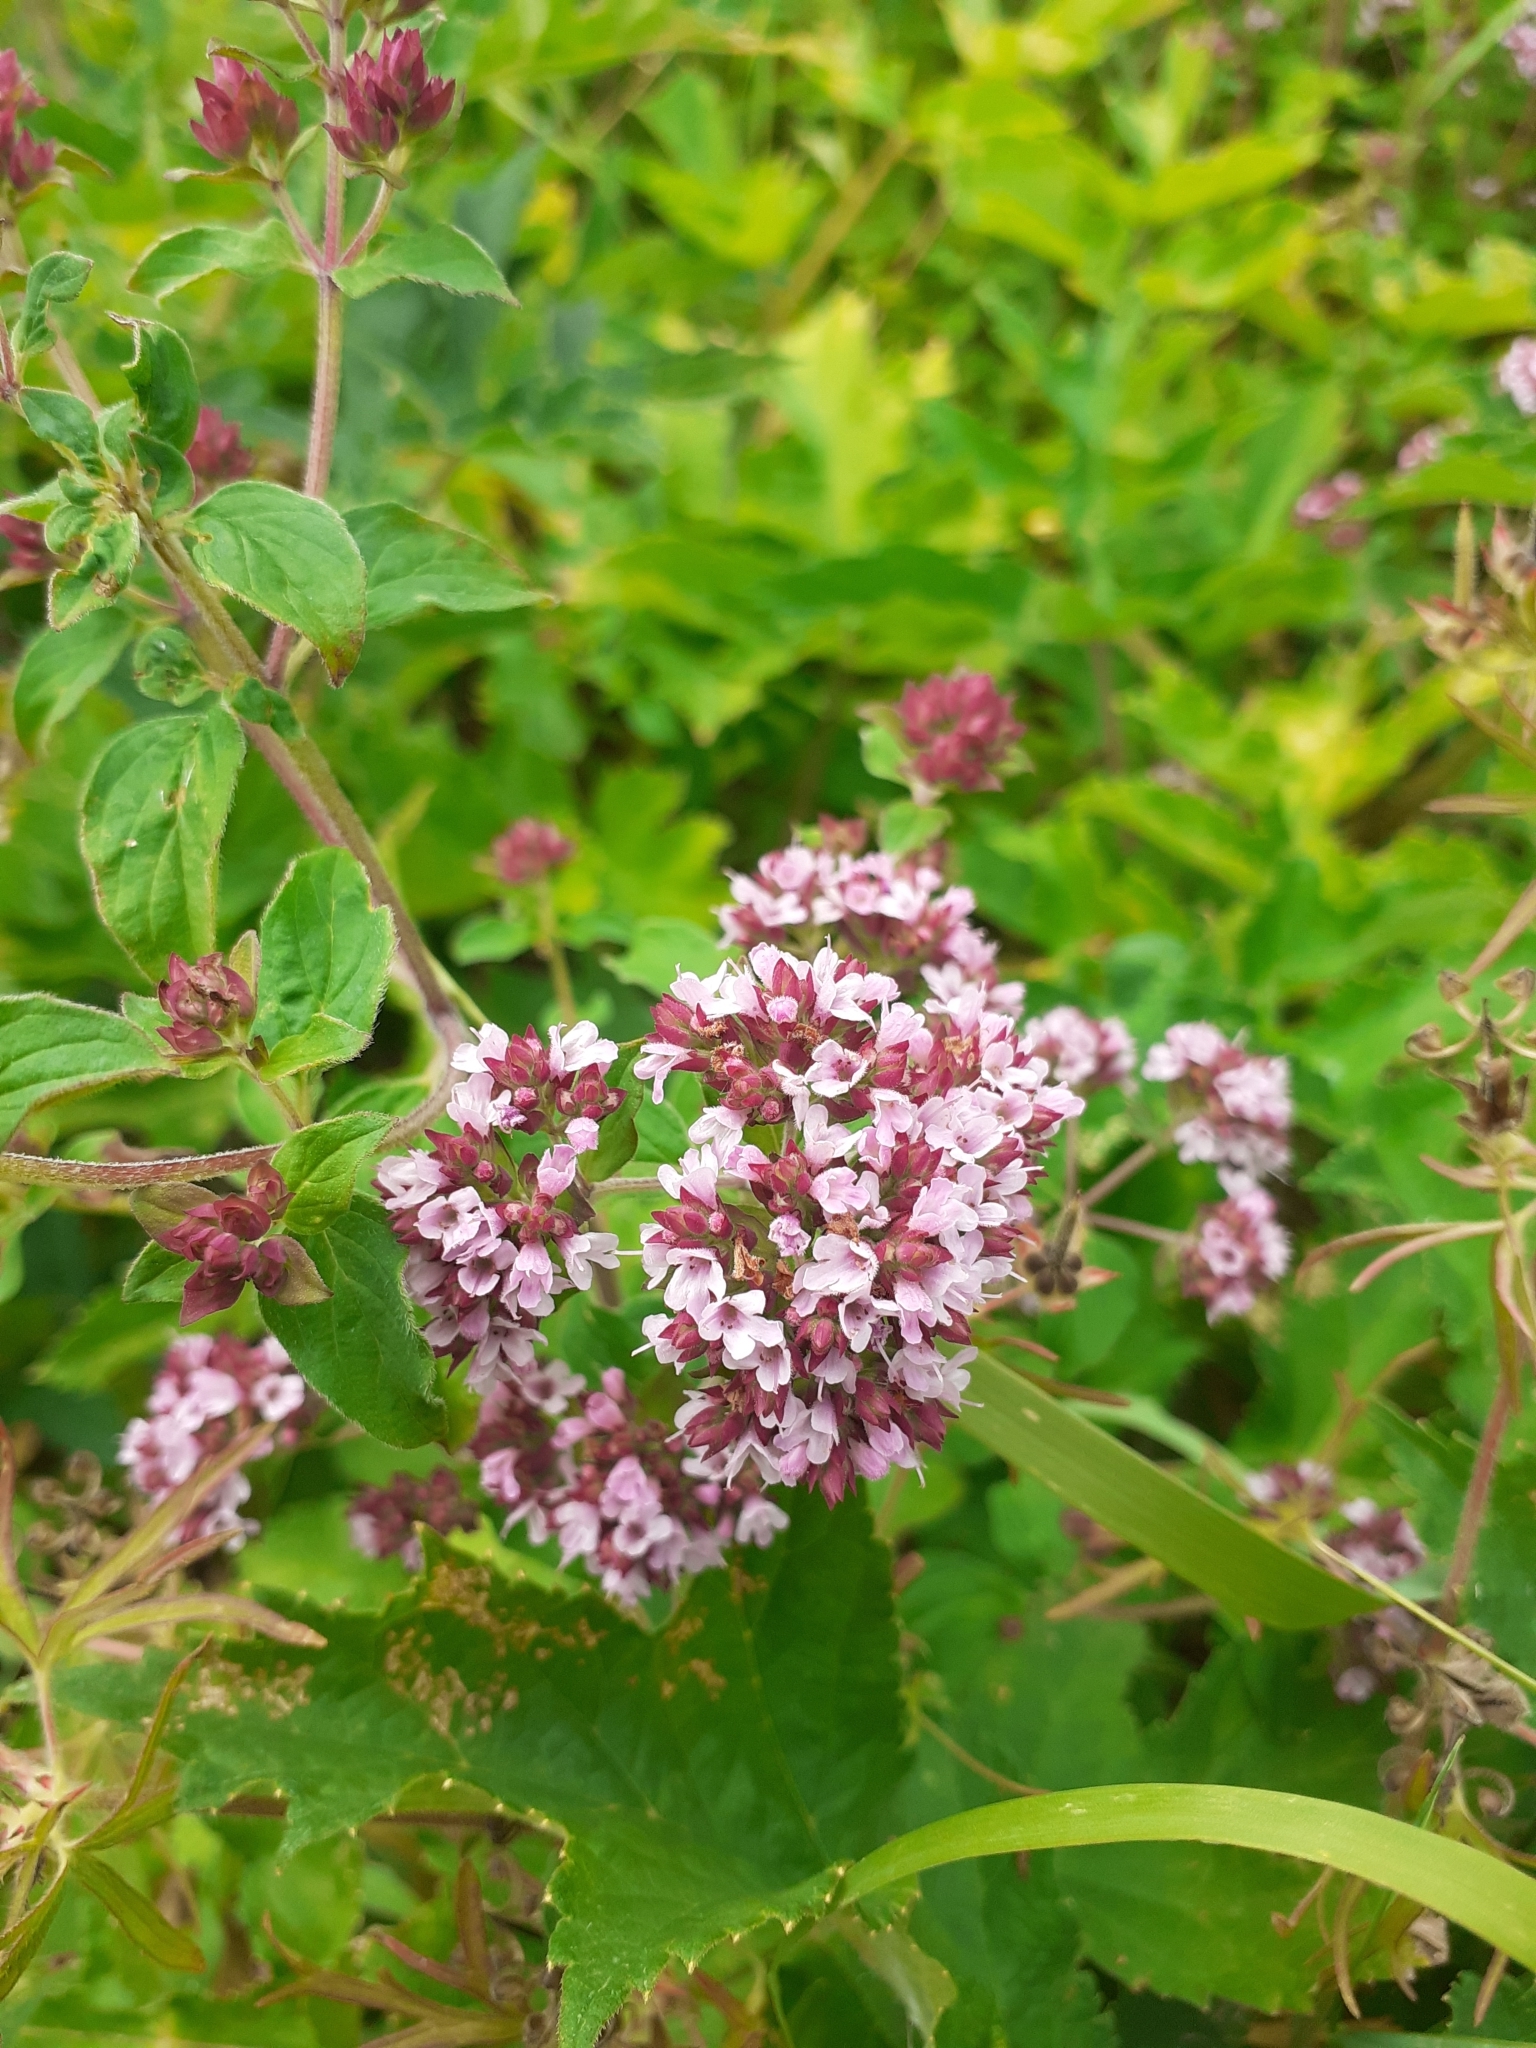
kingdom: Plantae
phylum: Tracheophyta
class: Magnoliopsida
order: Lamiales
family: Lamiaceae
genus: Origanum
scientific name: Origanum vulgare
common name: Wild marjoram
